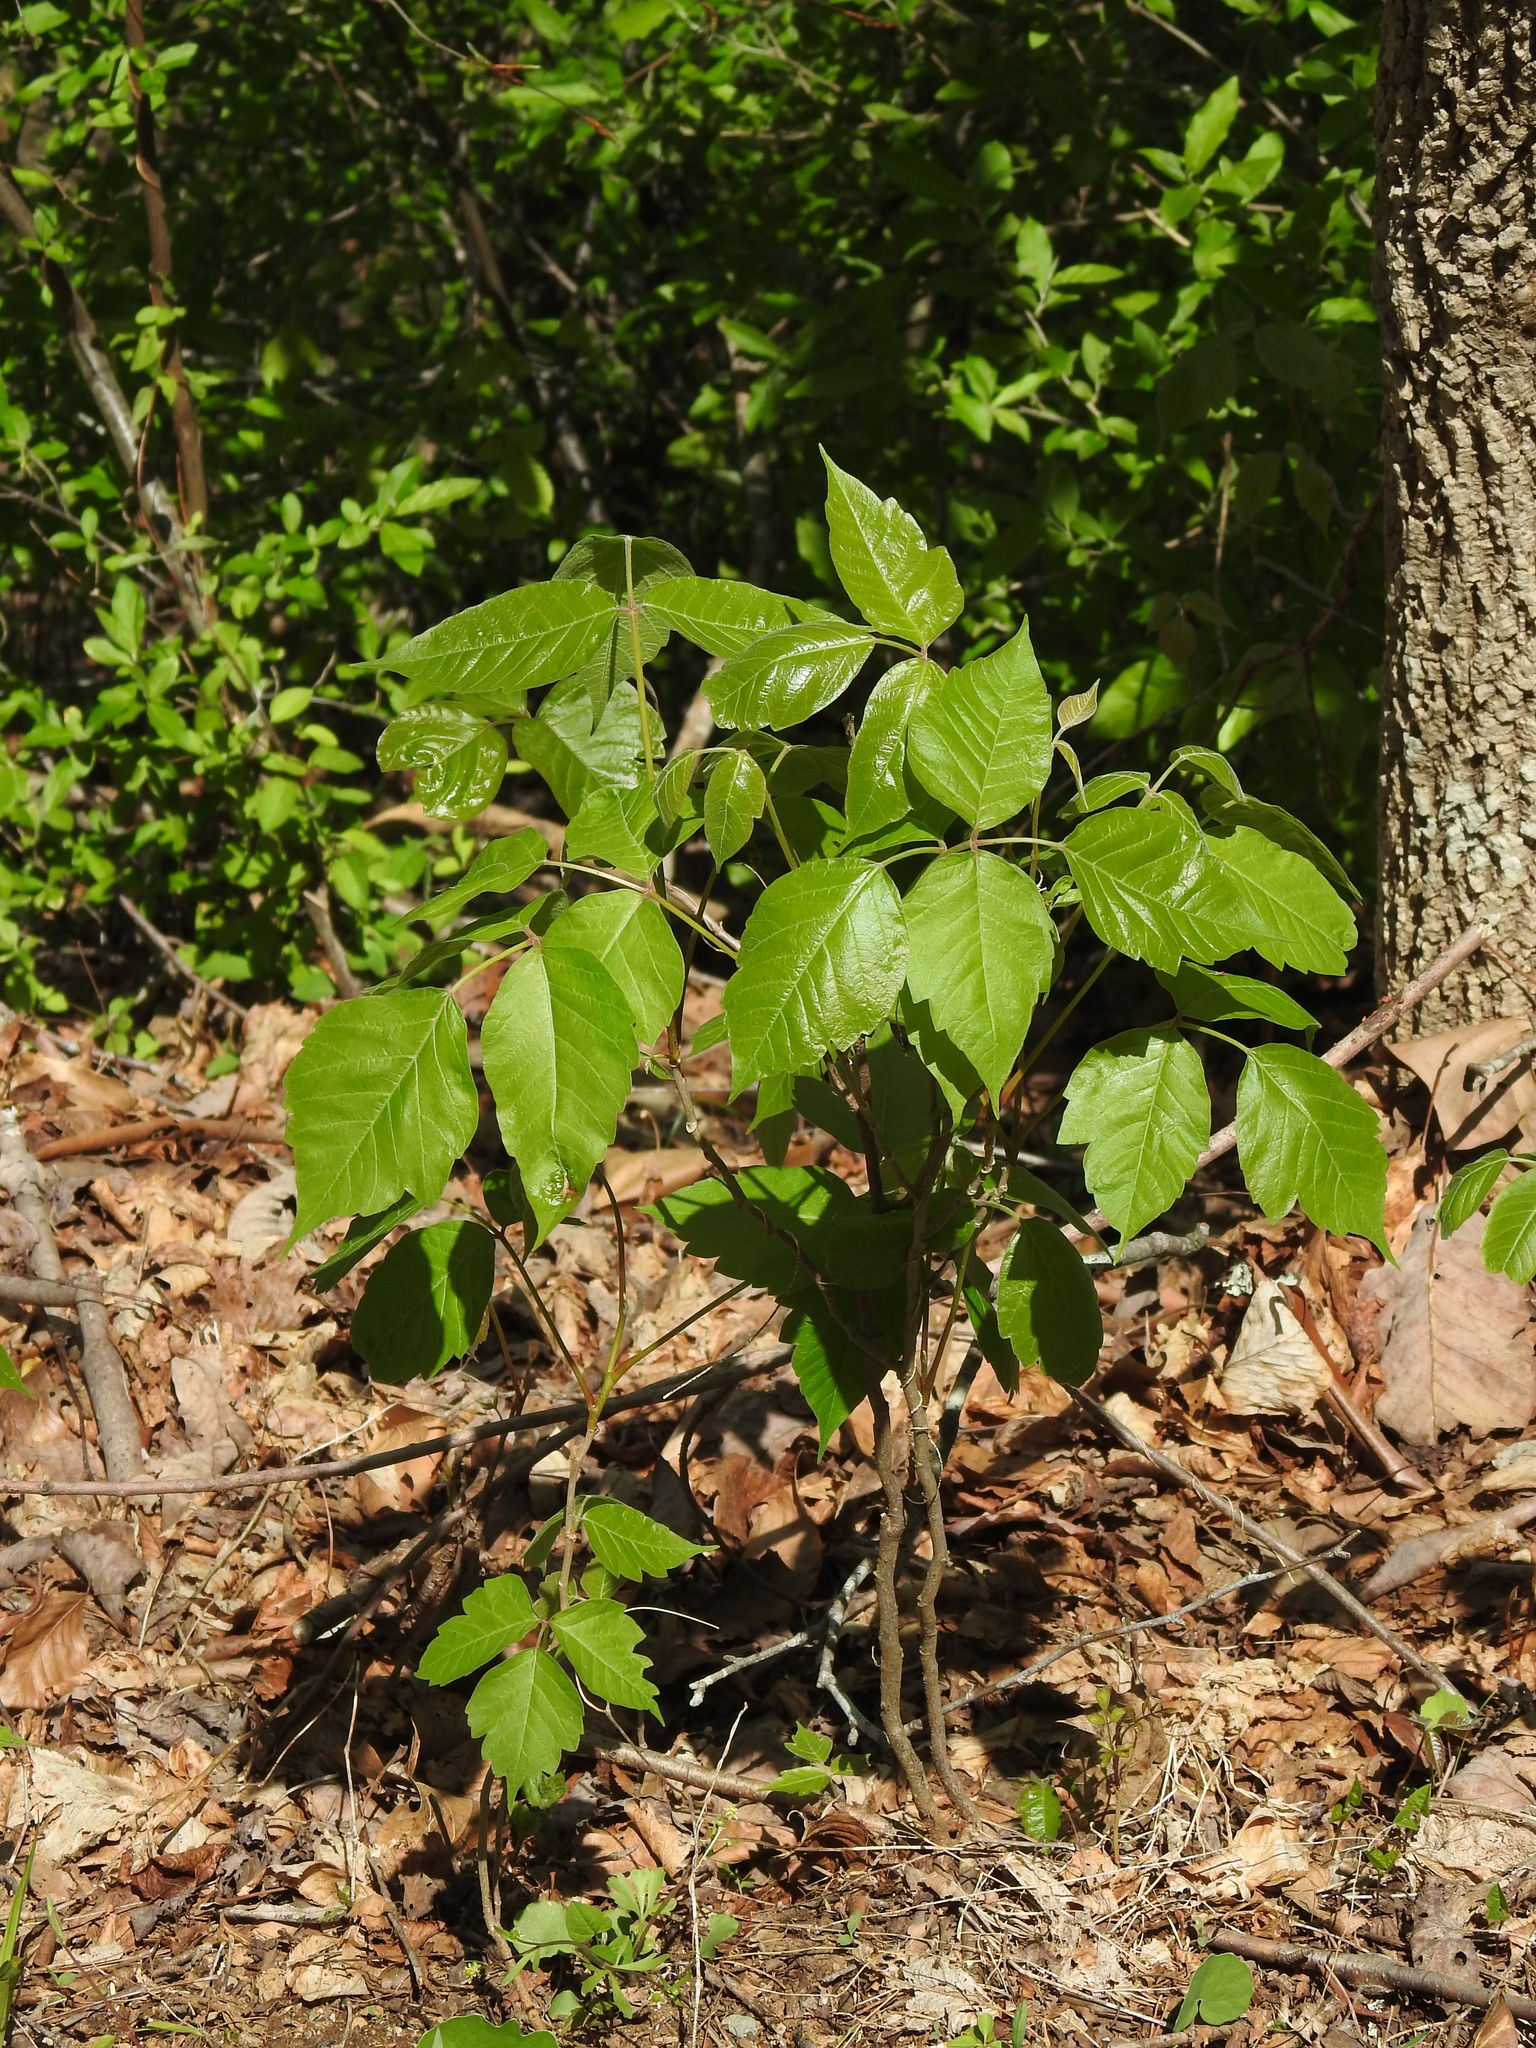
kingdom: Plantae
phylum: Tracheophyta
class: Magnoliopsida
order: Sapindales
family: Anacardiaceae
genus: Toxicodendron
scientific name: Toxicodendron radicans
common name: Poison ivy
